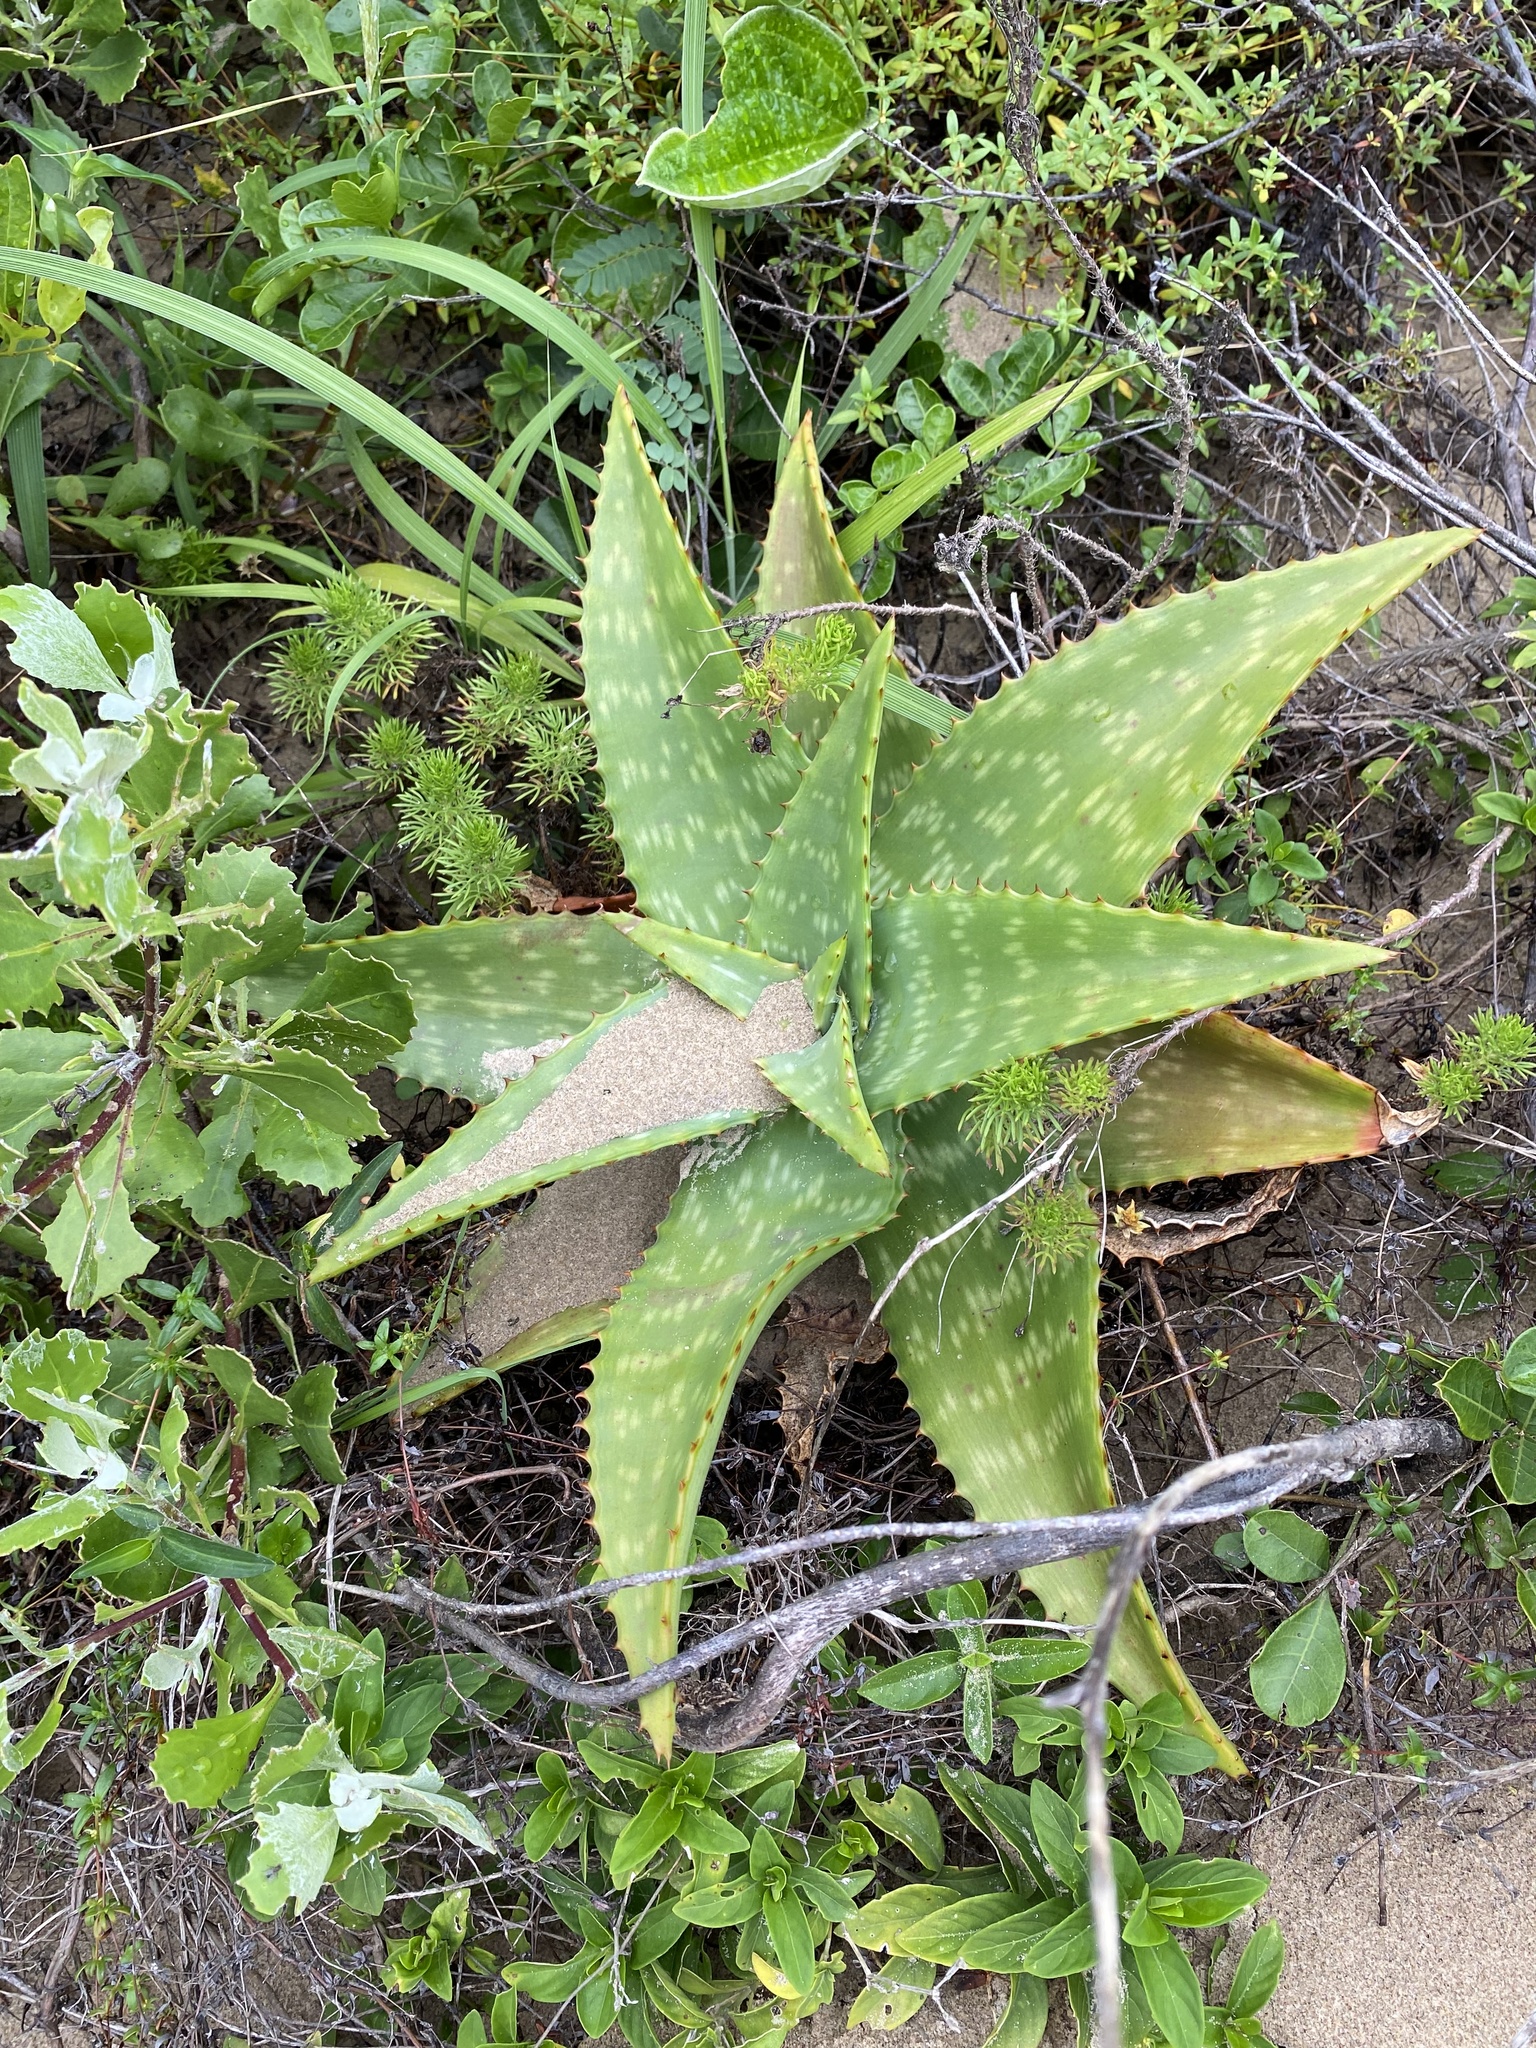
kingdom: Plantae
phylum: Tracheophyta
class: Liliopsida
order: Asparagales
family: Asphodelaceae
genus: Aloe
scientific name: Aloe maculata
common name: Broadleaf aloe
